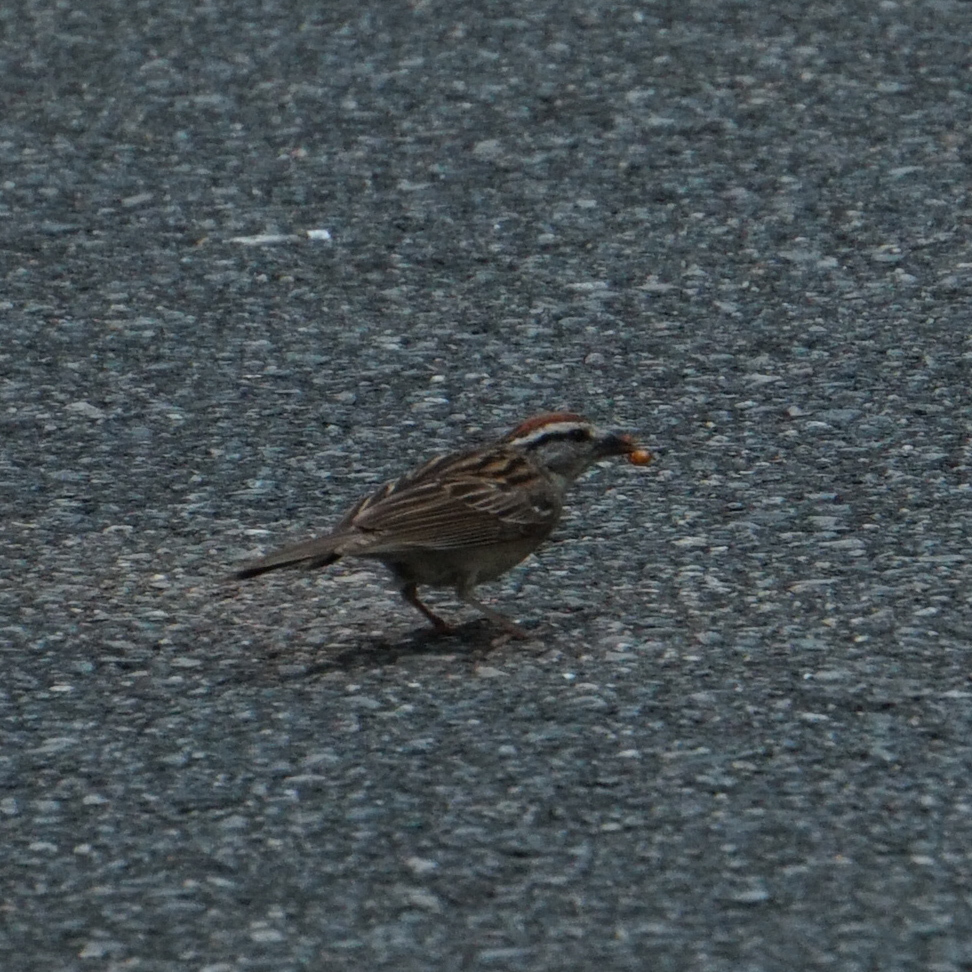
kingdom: Animalia
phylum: Chordata
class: Aves
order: Passeriformes
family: Passerellidae
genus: Spizella
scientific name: Spizella passerina
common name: Chipping sparrow
